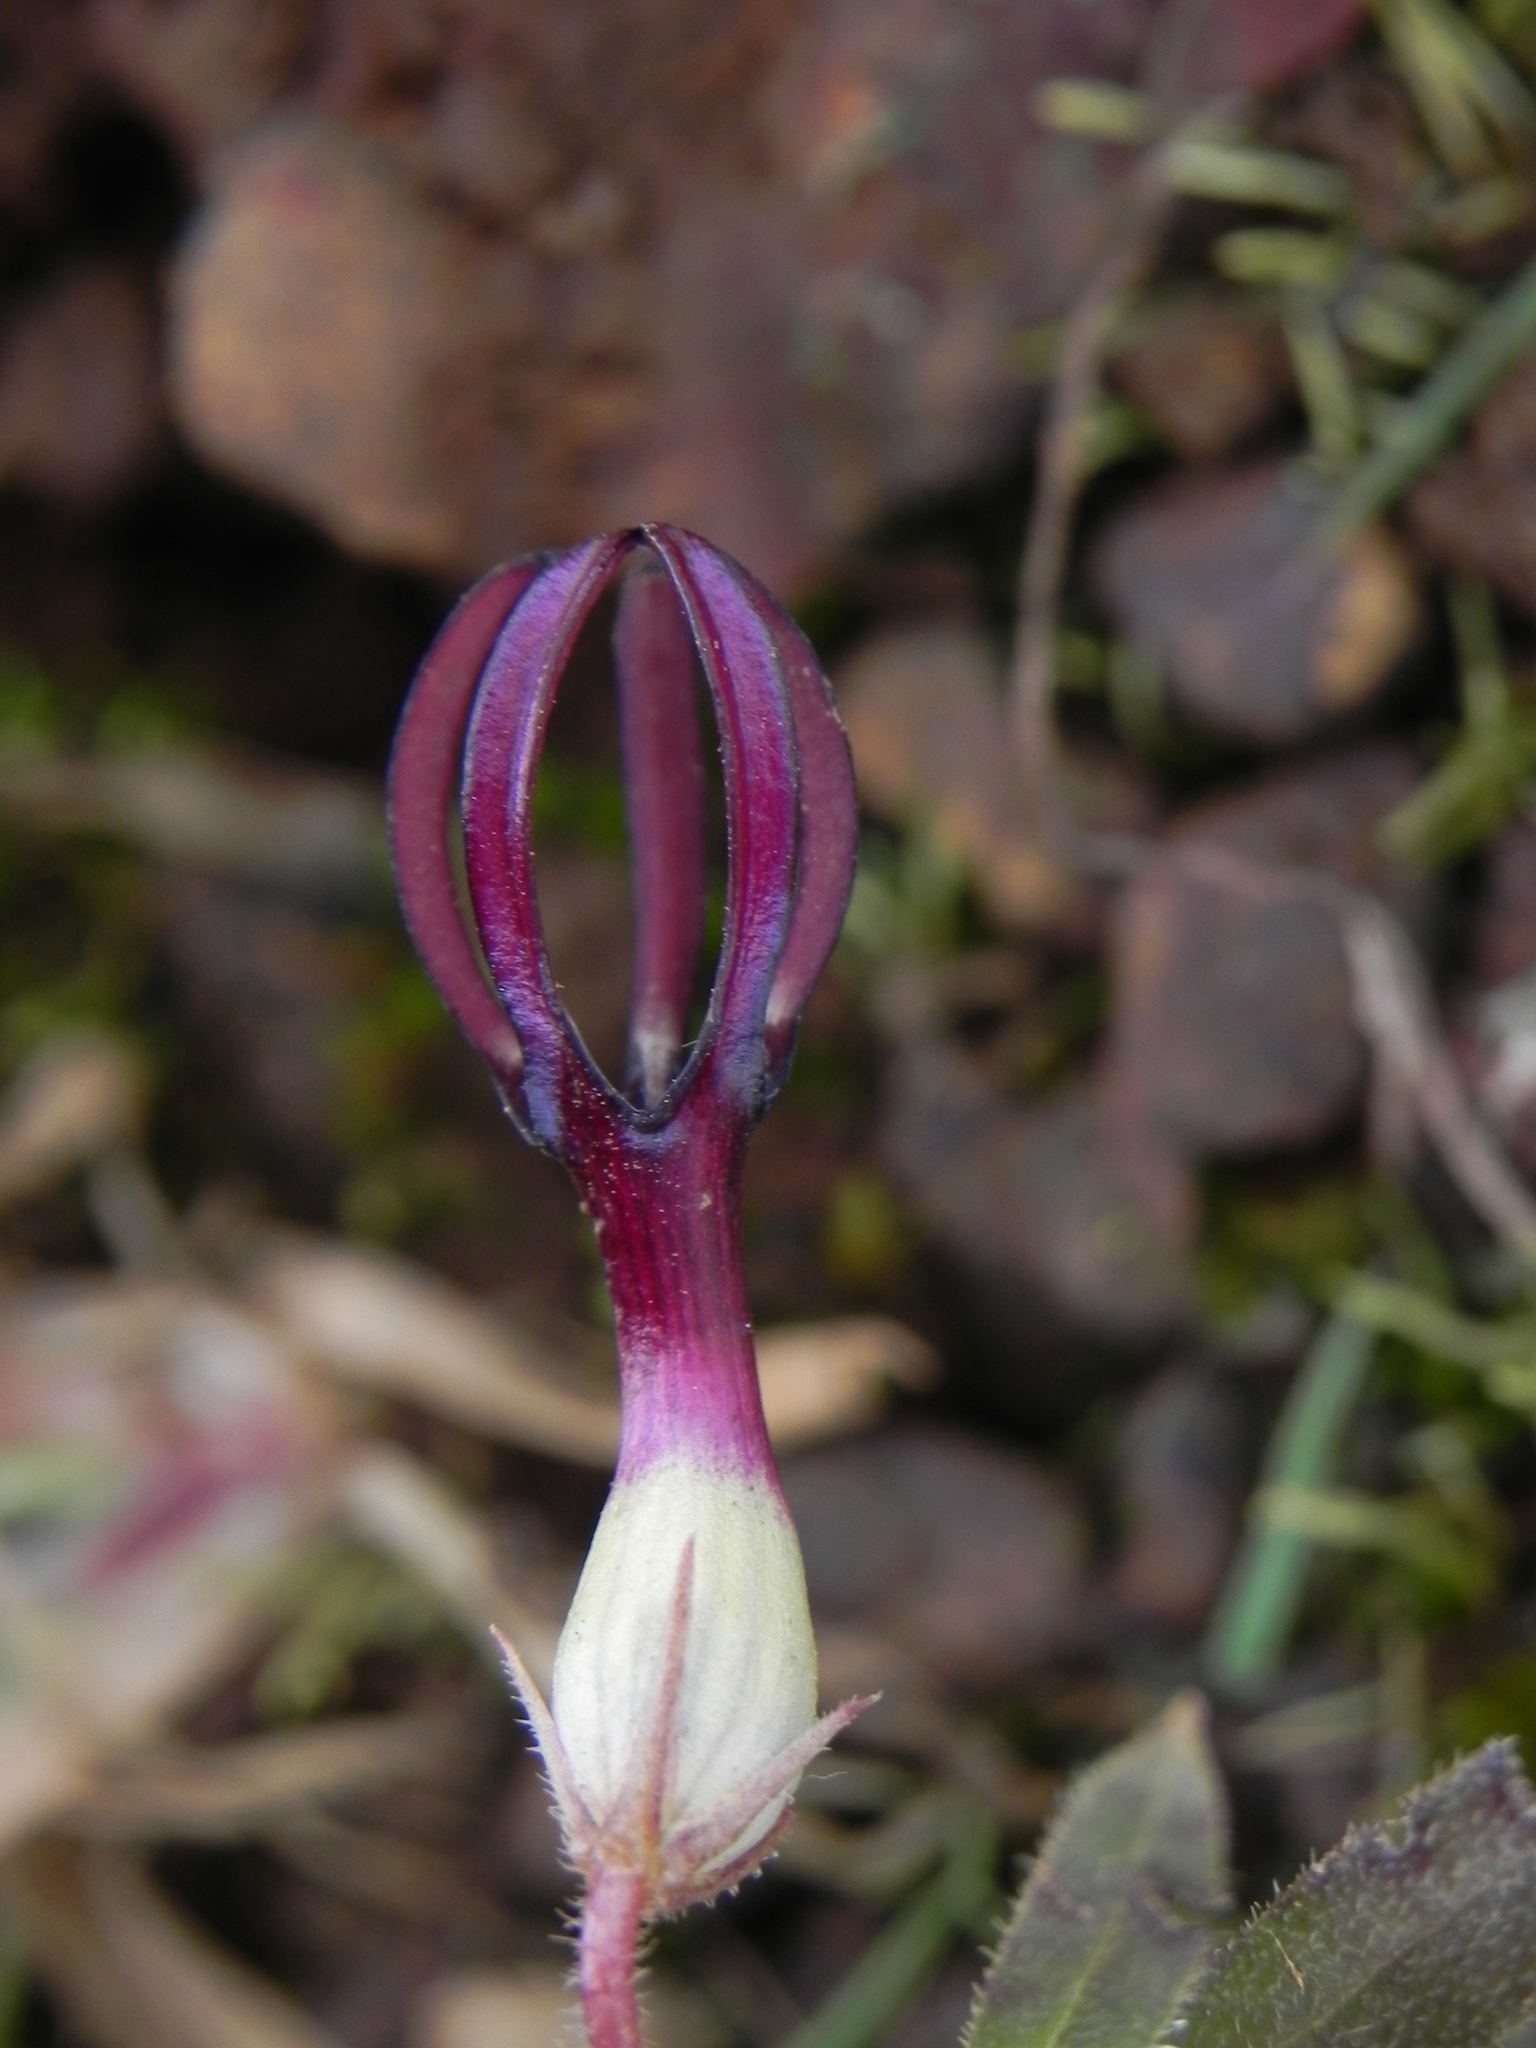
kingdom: Plantae
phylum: Tracheophyta
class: Magnoliopsida
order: Gentianales
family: Apocynaceae
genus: Ceropegia
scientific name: Ceropegia jainii
